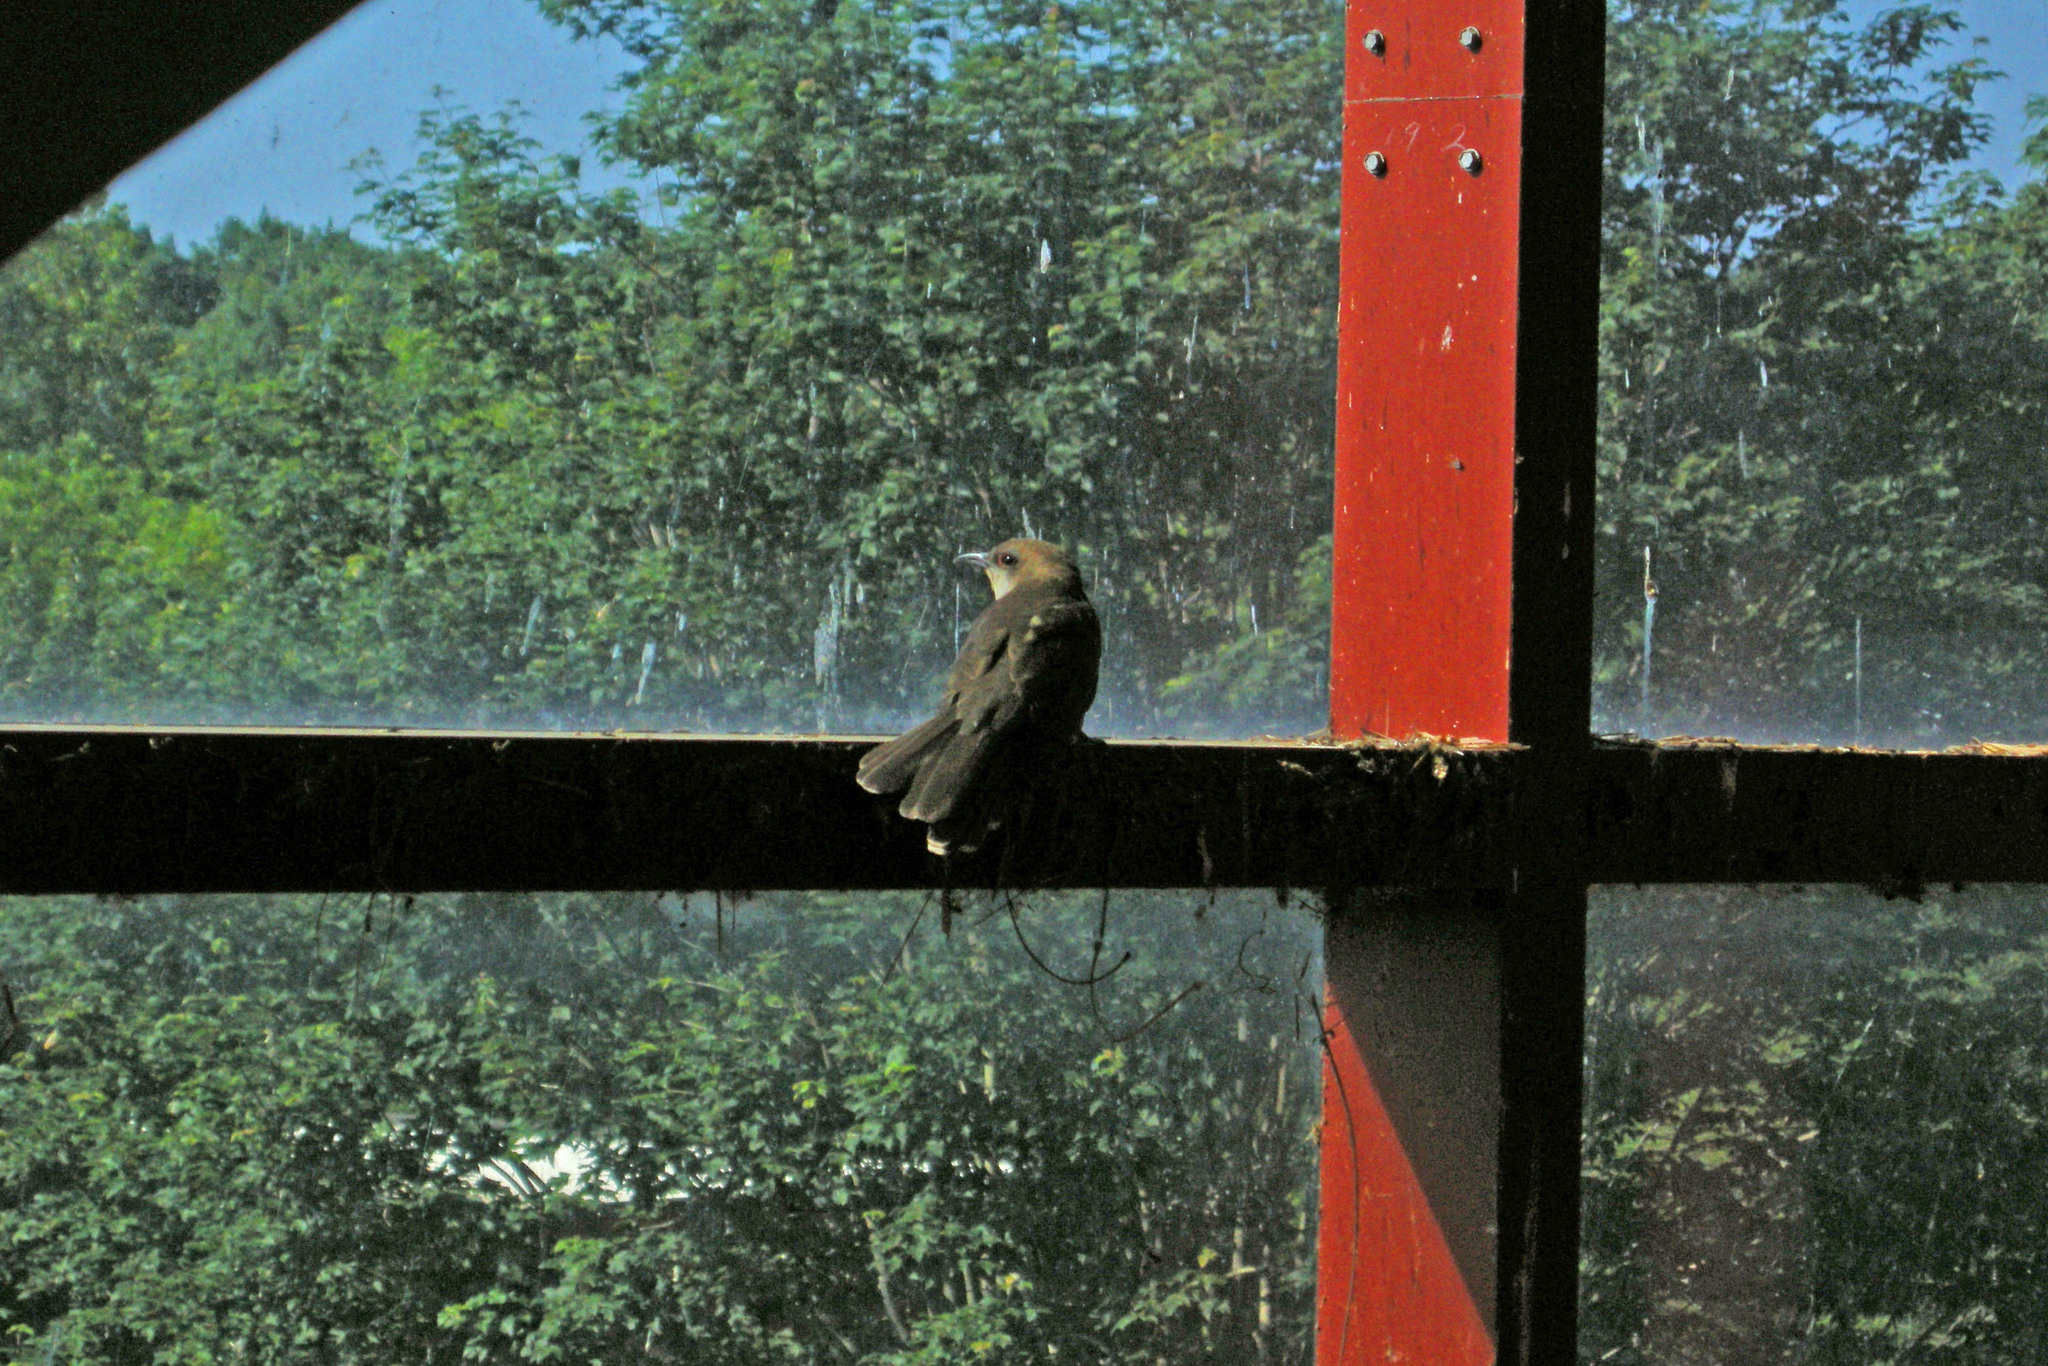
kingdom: Animalia
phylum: Chordata
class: Aves
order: Cuculiformes
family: Cuculidae
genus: Coccyzus
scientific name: Coccyzus erythropthalmus
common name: Black-billed cuckoo
